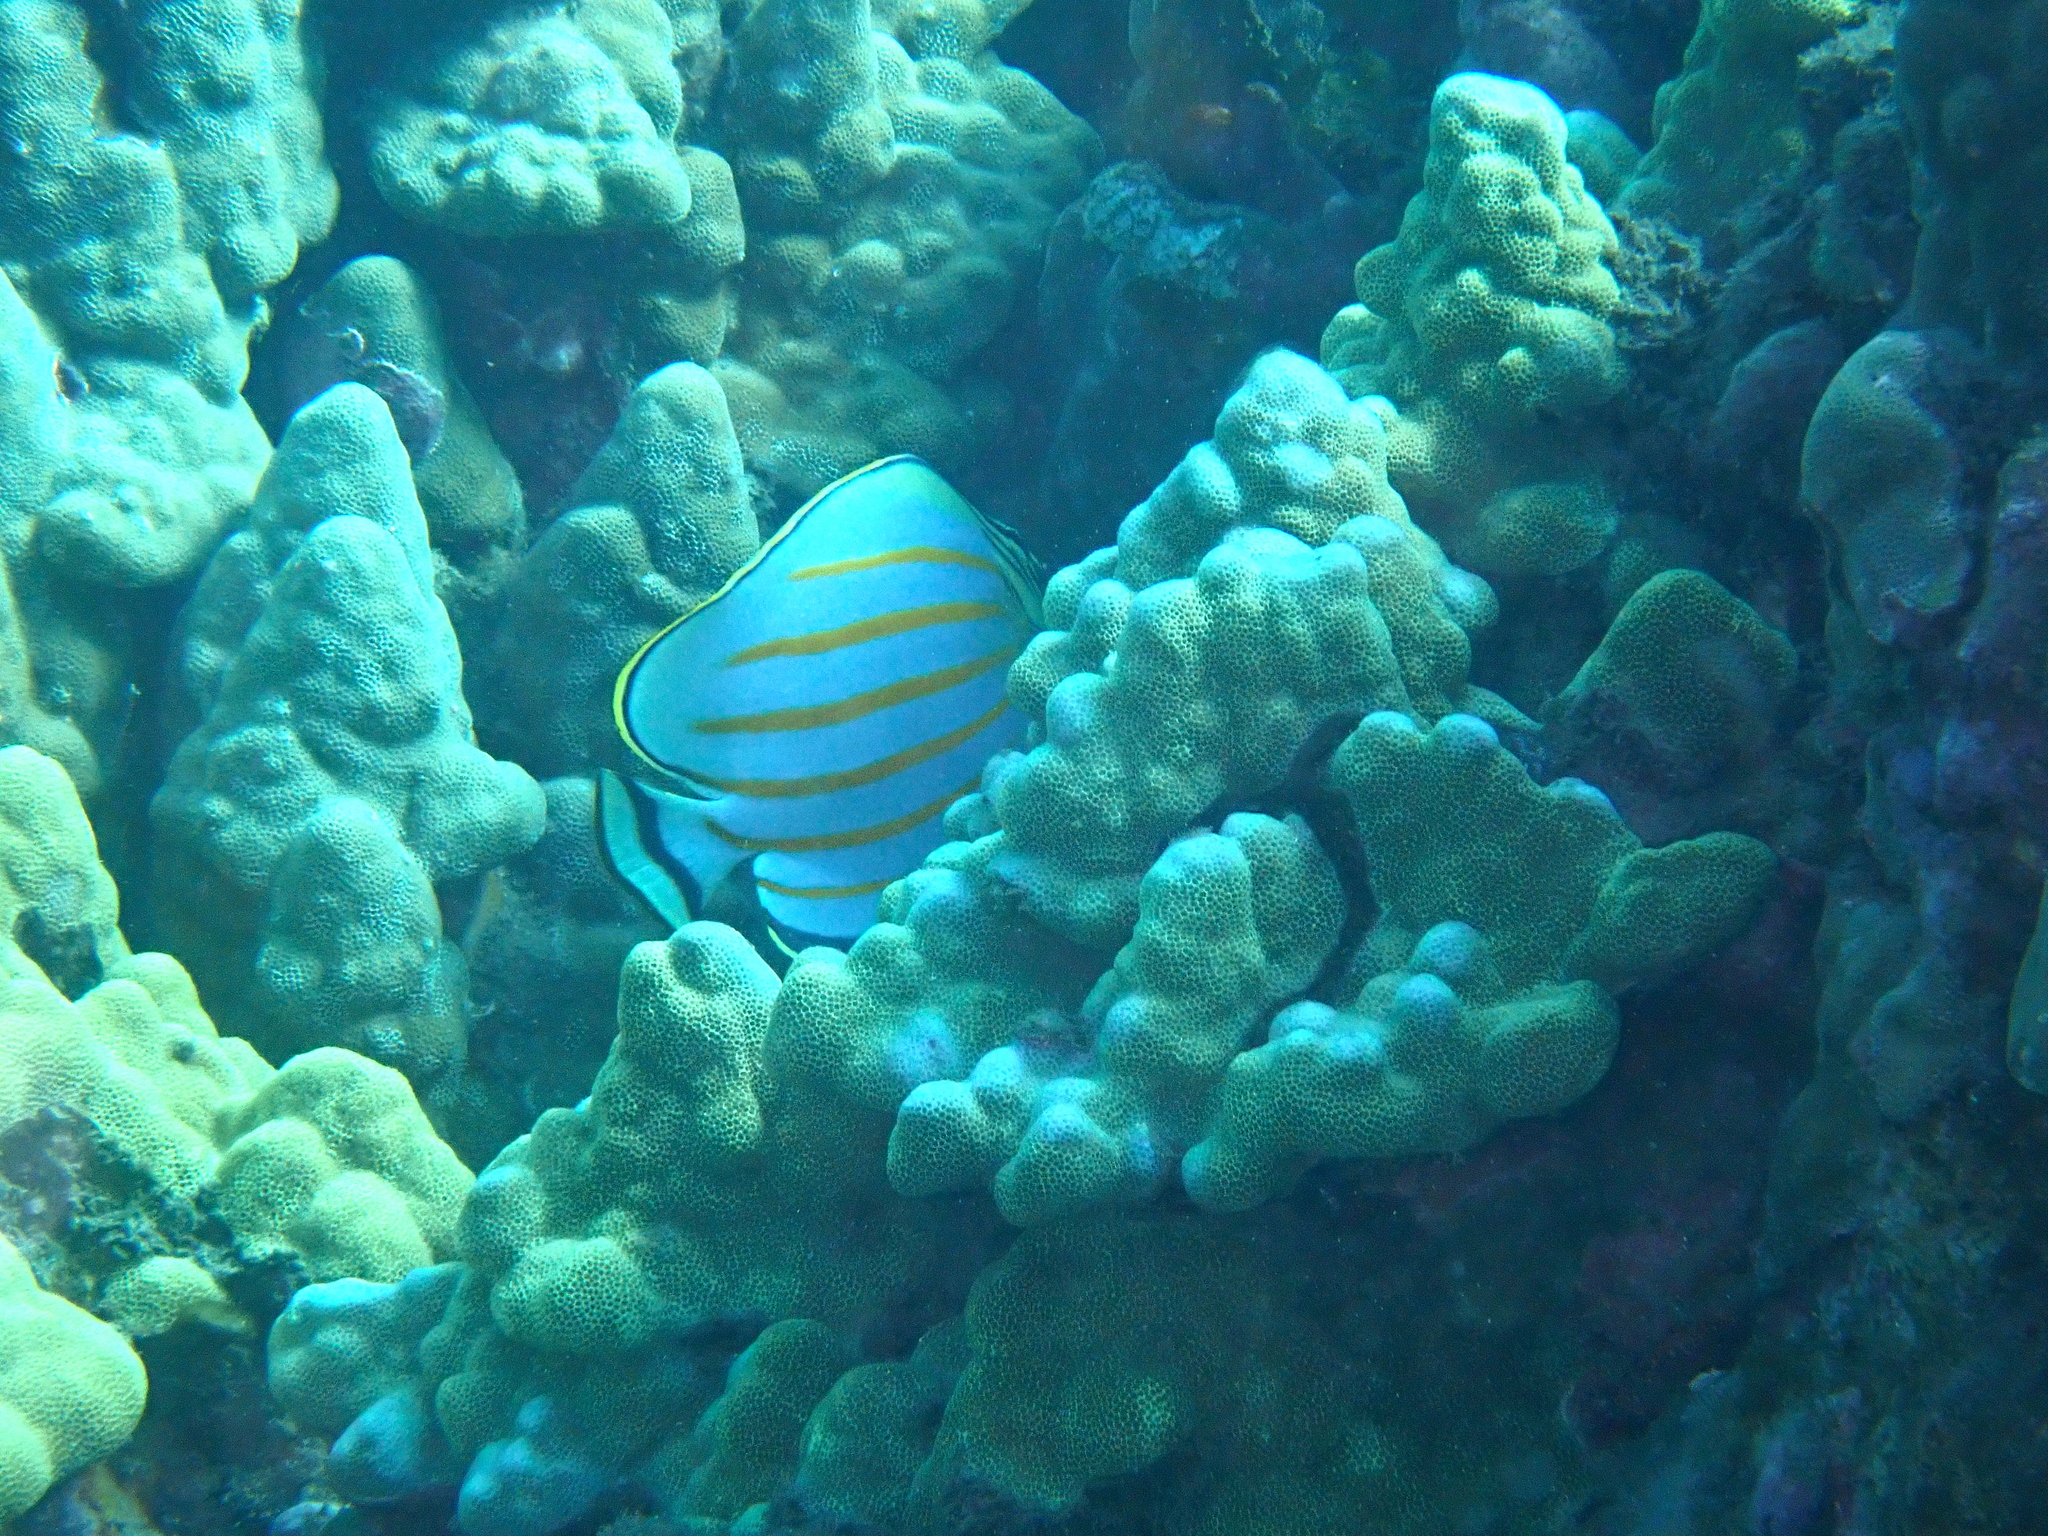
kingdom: Animalia
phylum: Chordata
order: Perciformes
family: Chaetodontidae
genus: Chaetodon
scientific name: Chaetodon ornatissimus
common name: Ornate butterflyfish
